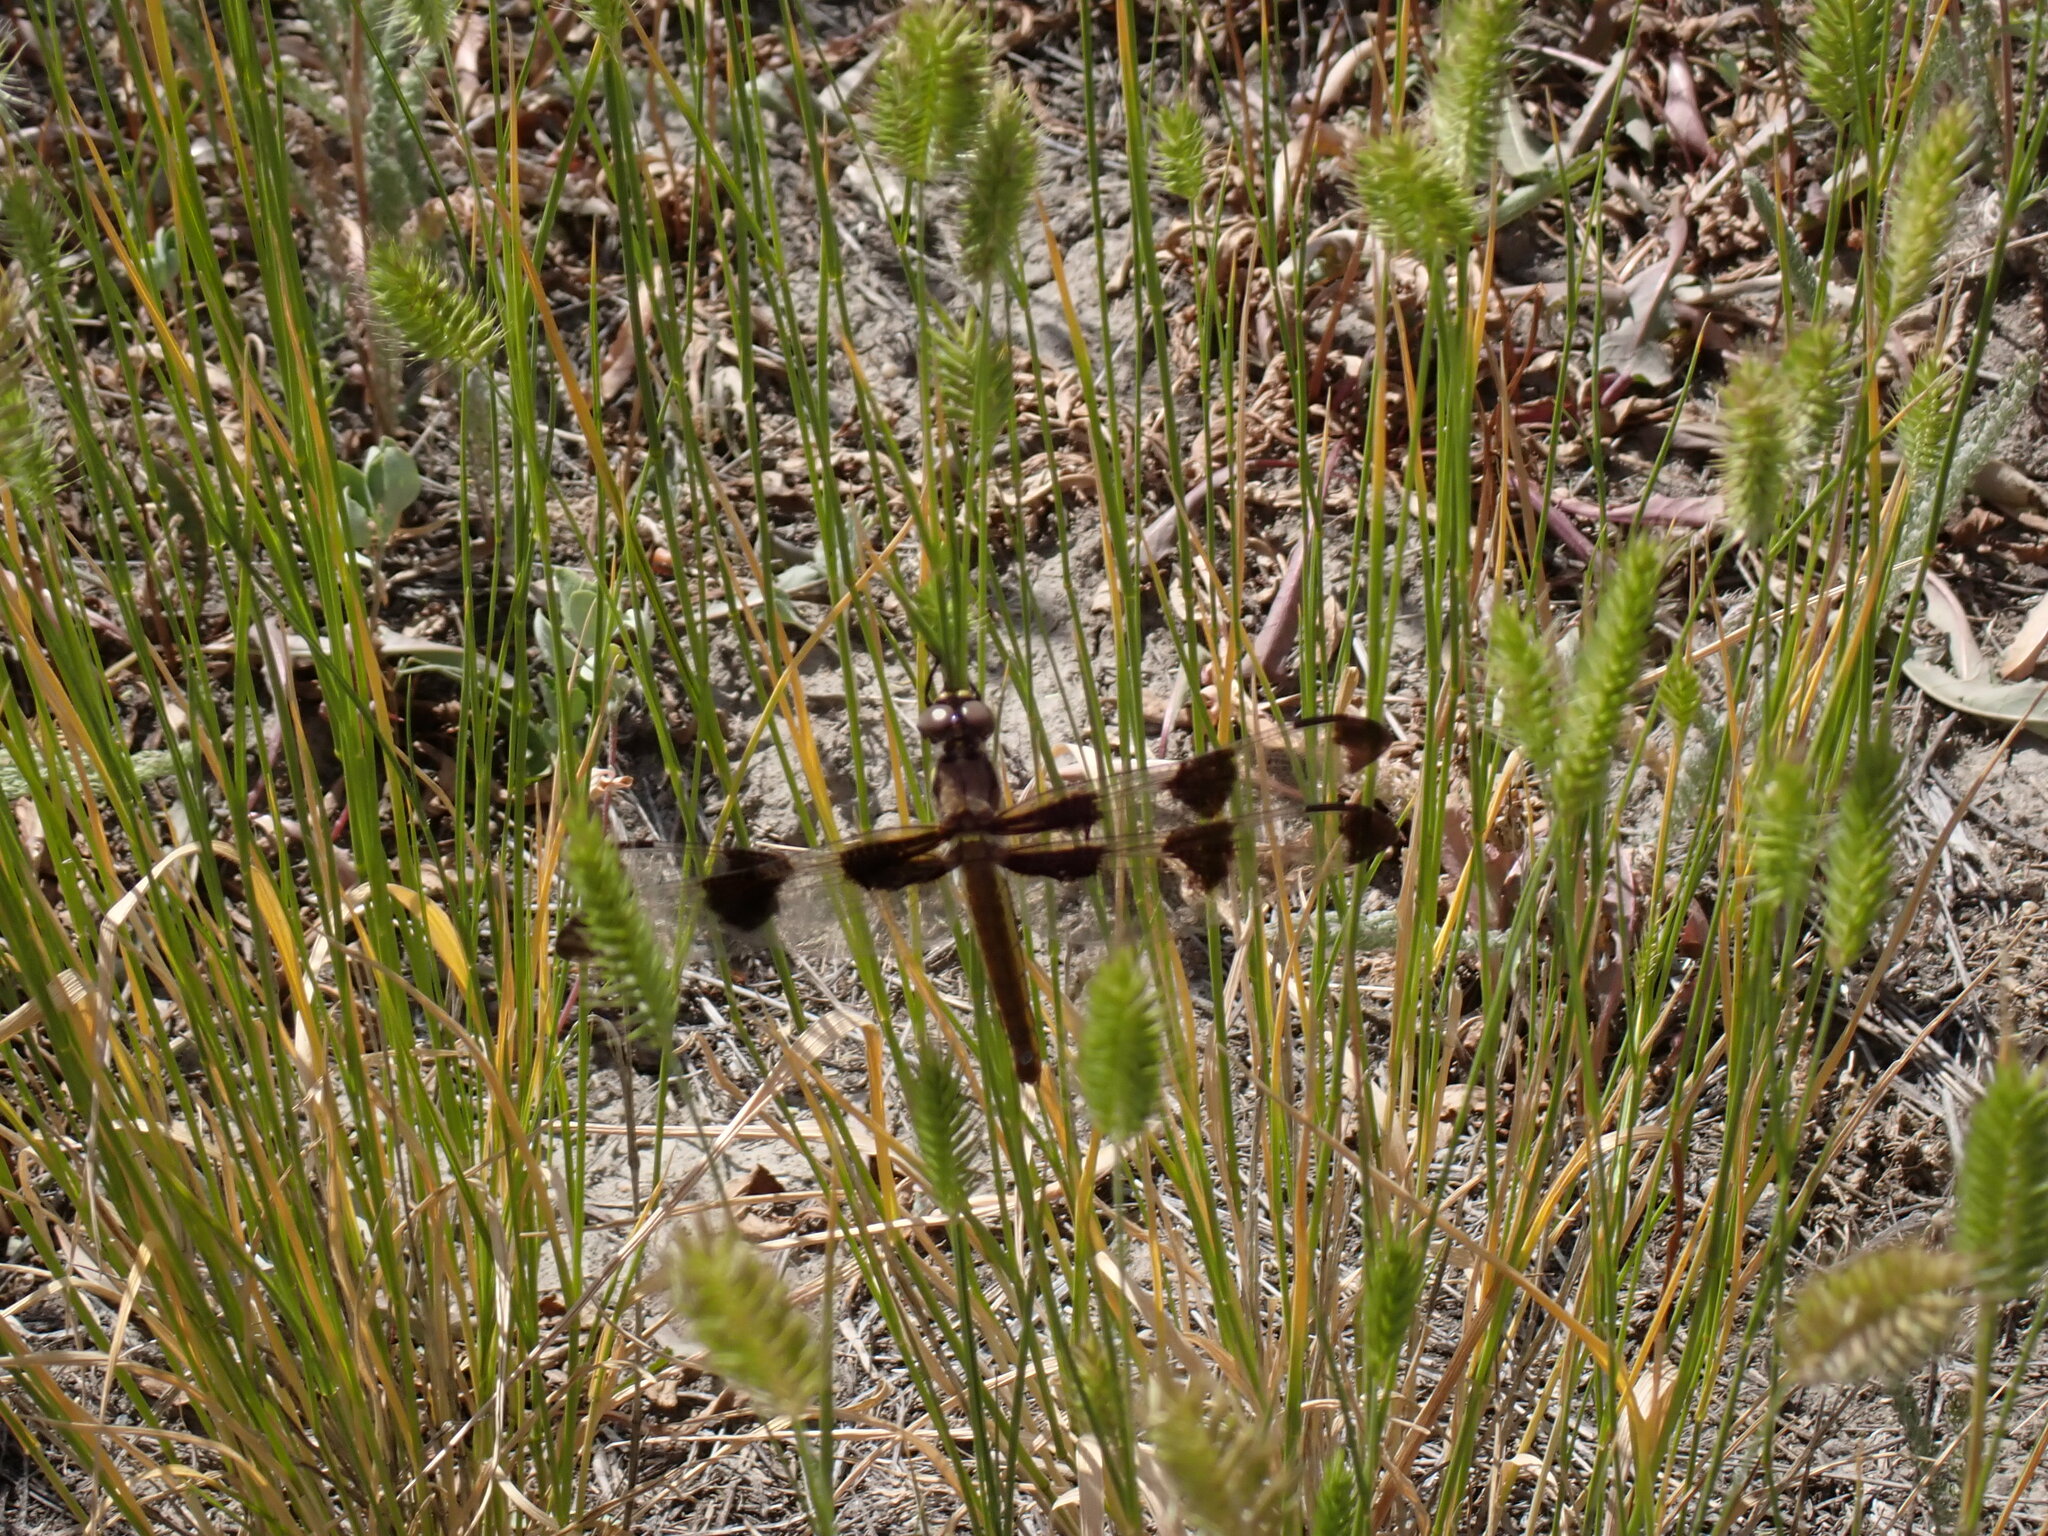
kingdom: Animalia
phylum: Arthropoda
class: Insecta
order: Odonata
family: Libellulidae
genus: Libellula
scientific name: Libellula pulchella
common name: Twelve-spotted skimmer
